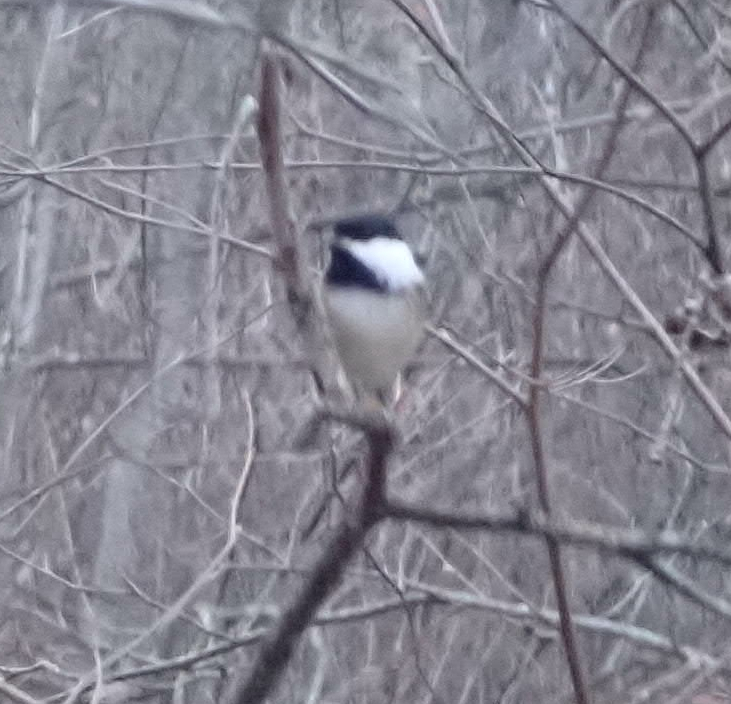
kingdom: Animalia
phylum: Chordata
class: Aves
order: Passeriformes
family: Paridae
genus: Poecile
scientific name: Poecile atricapillus
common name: Black-capped chickadee
